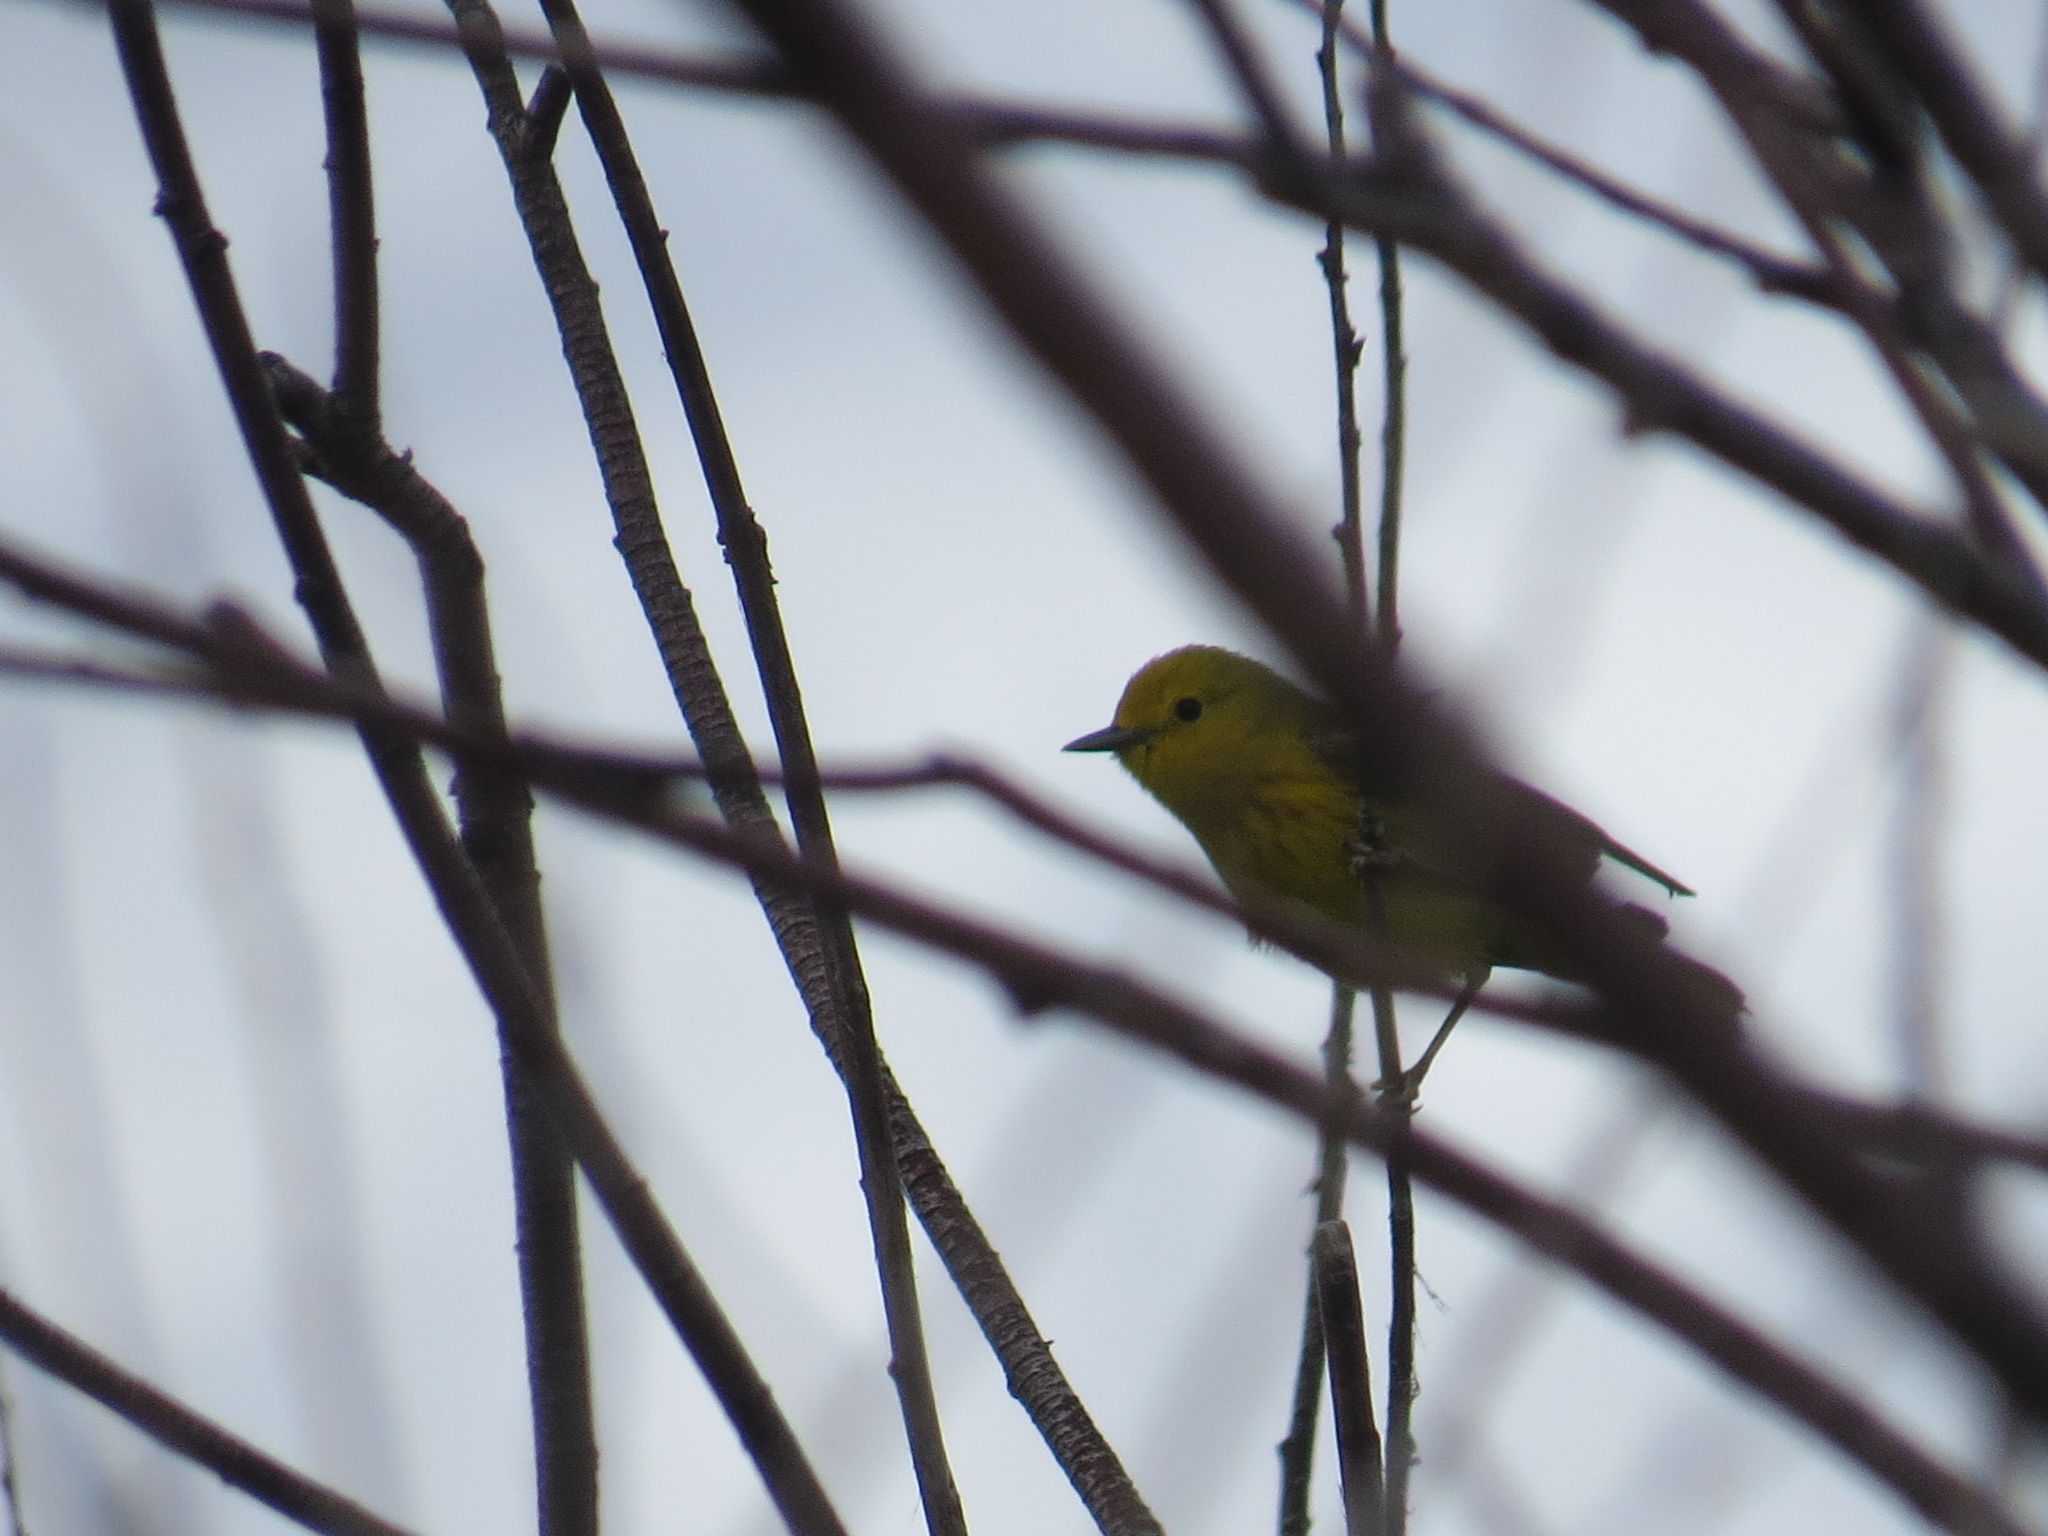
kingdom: Animalia
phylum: Chordata
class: Aves
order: Passeriformes
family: Parulidae
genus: Setophaga
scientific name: Setophaga petechia
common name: Yellow warbler
